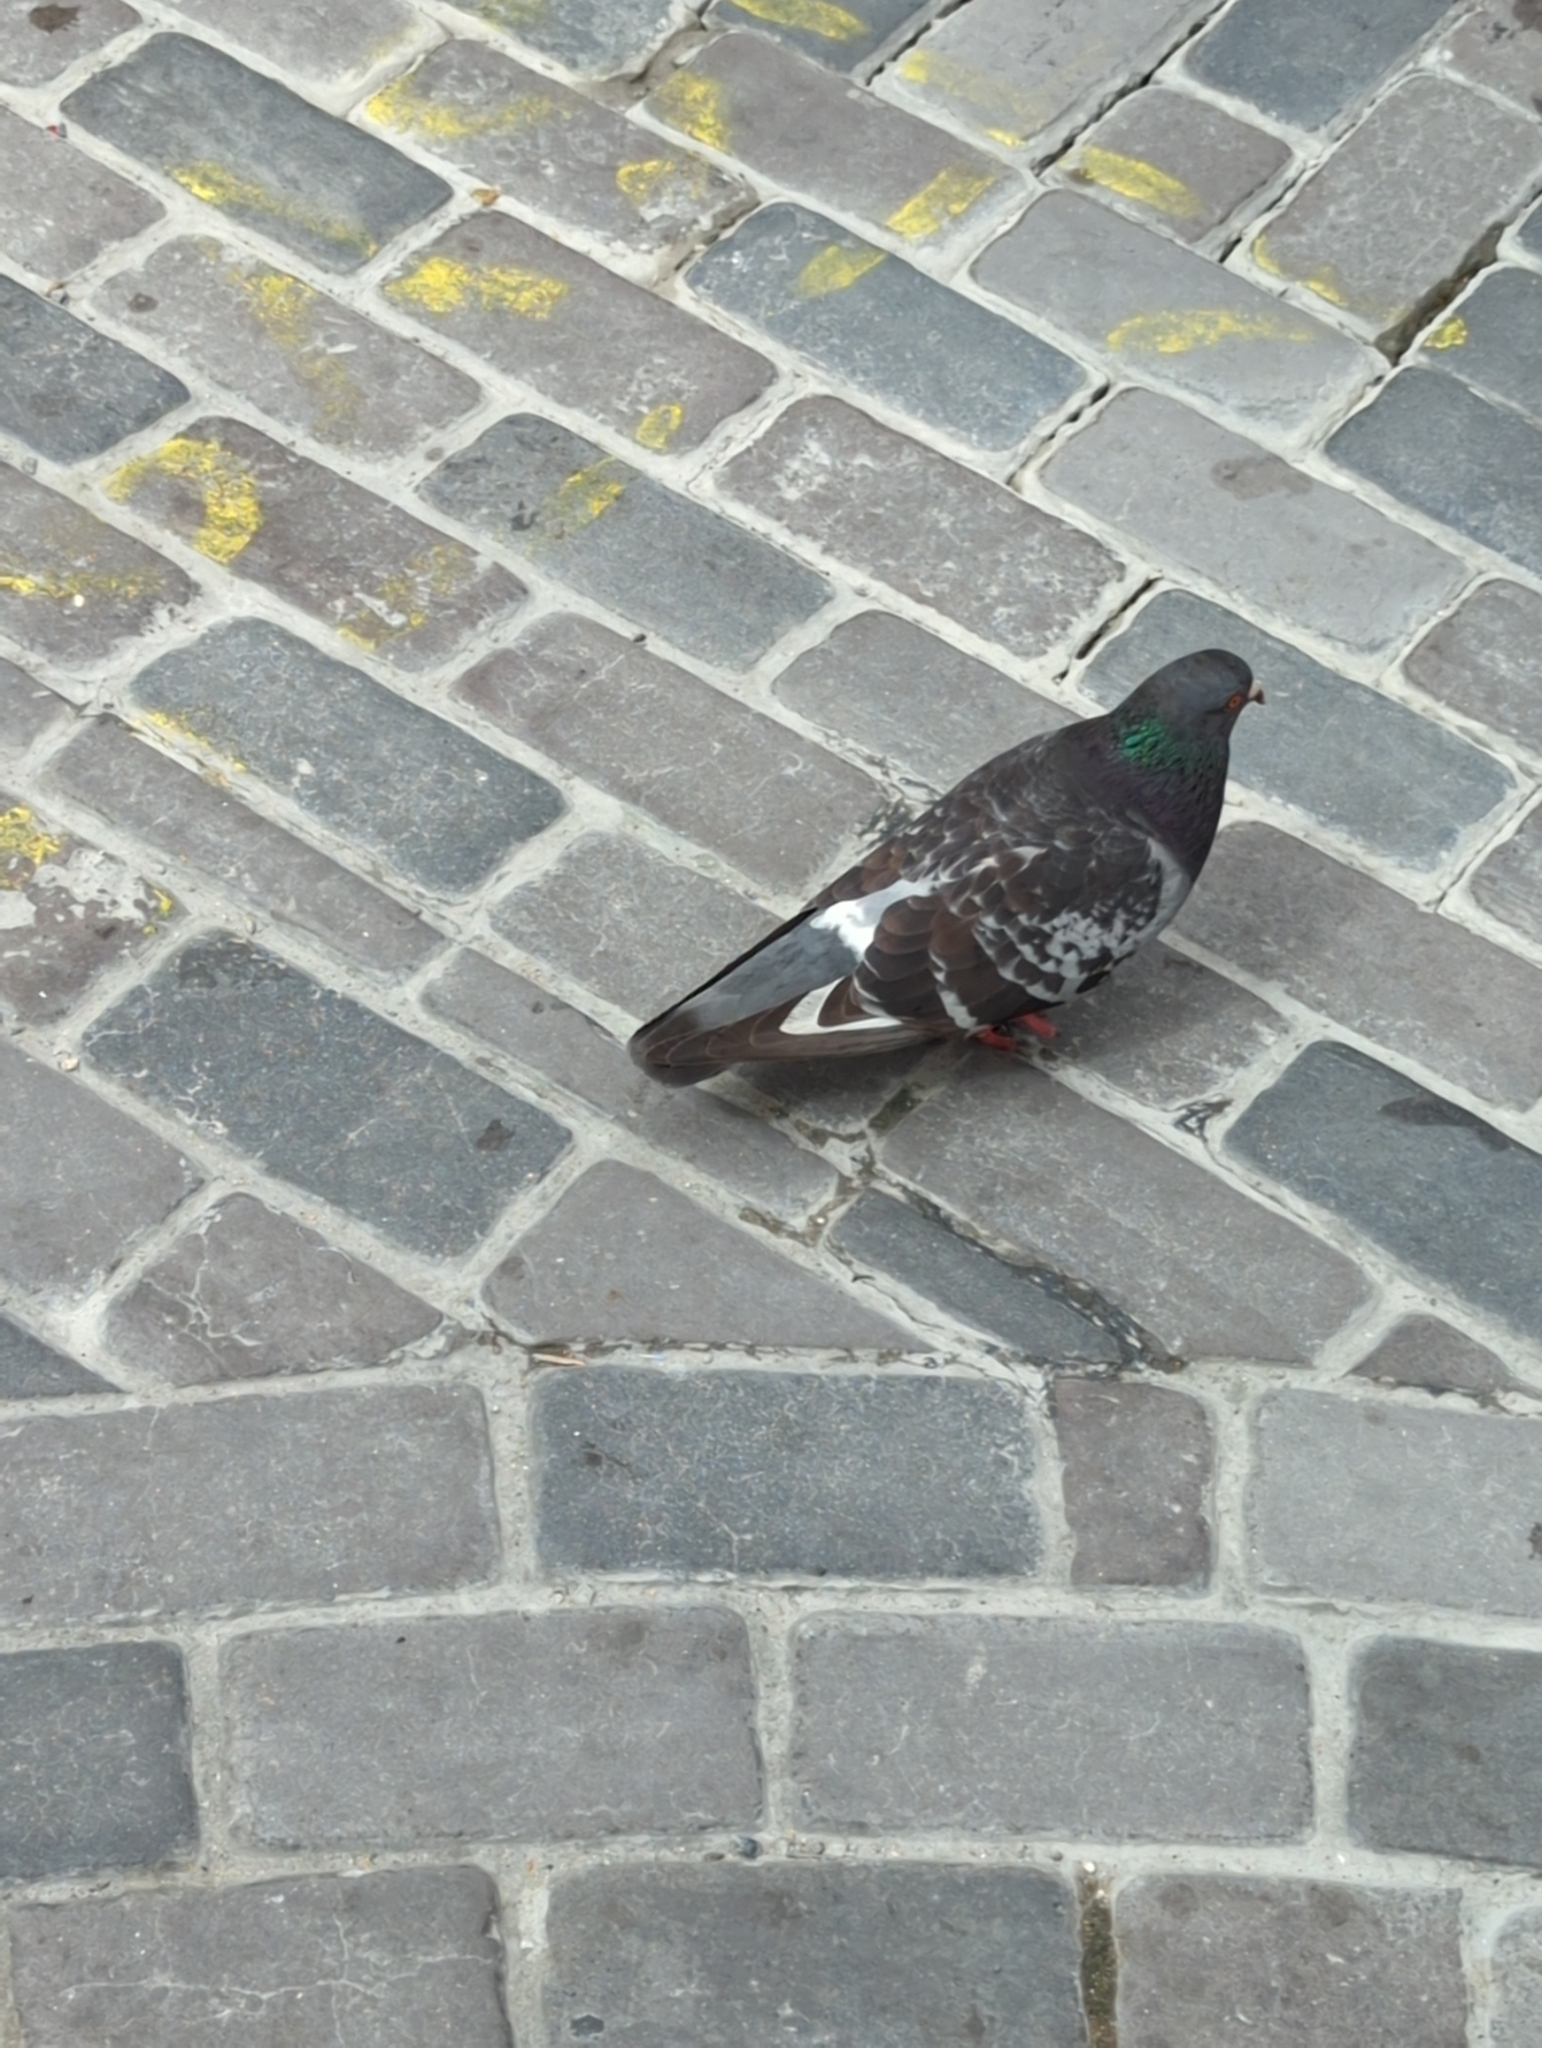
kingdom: Animalia
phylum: Chordata
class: Aves
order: Columbiformes
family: Columbidae
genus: Columba
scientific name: Columba livia
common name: Rock pigeon
